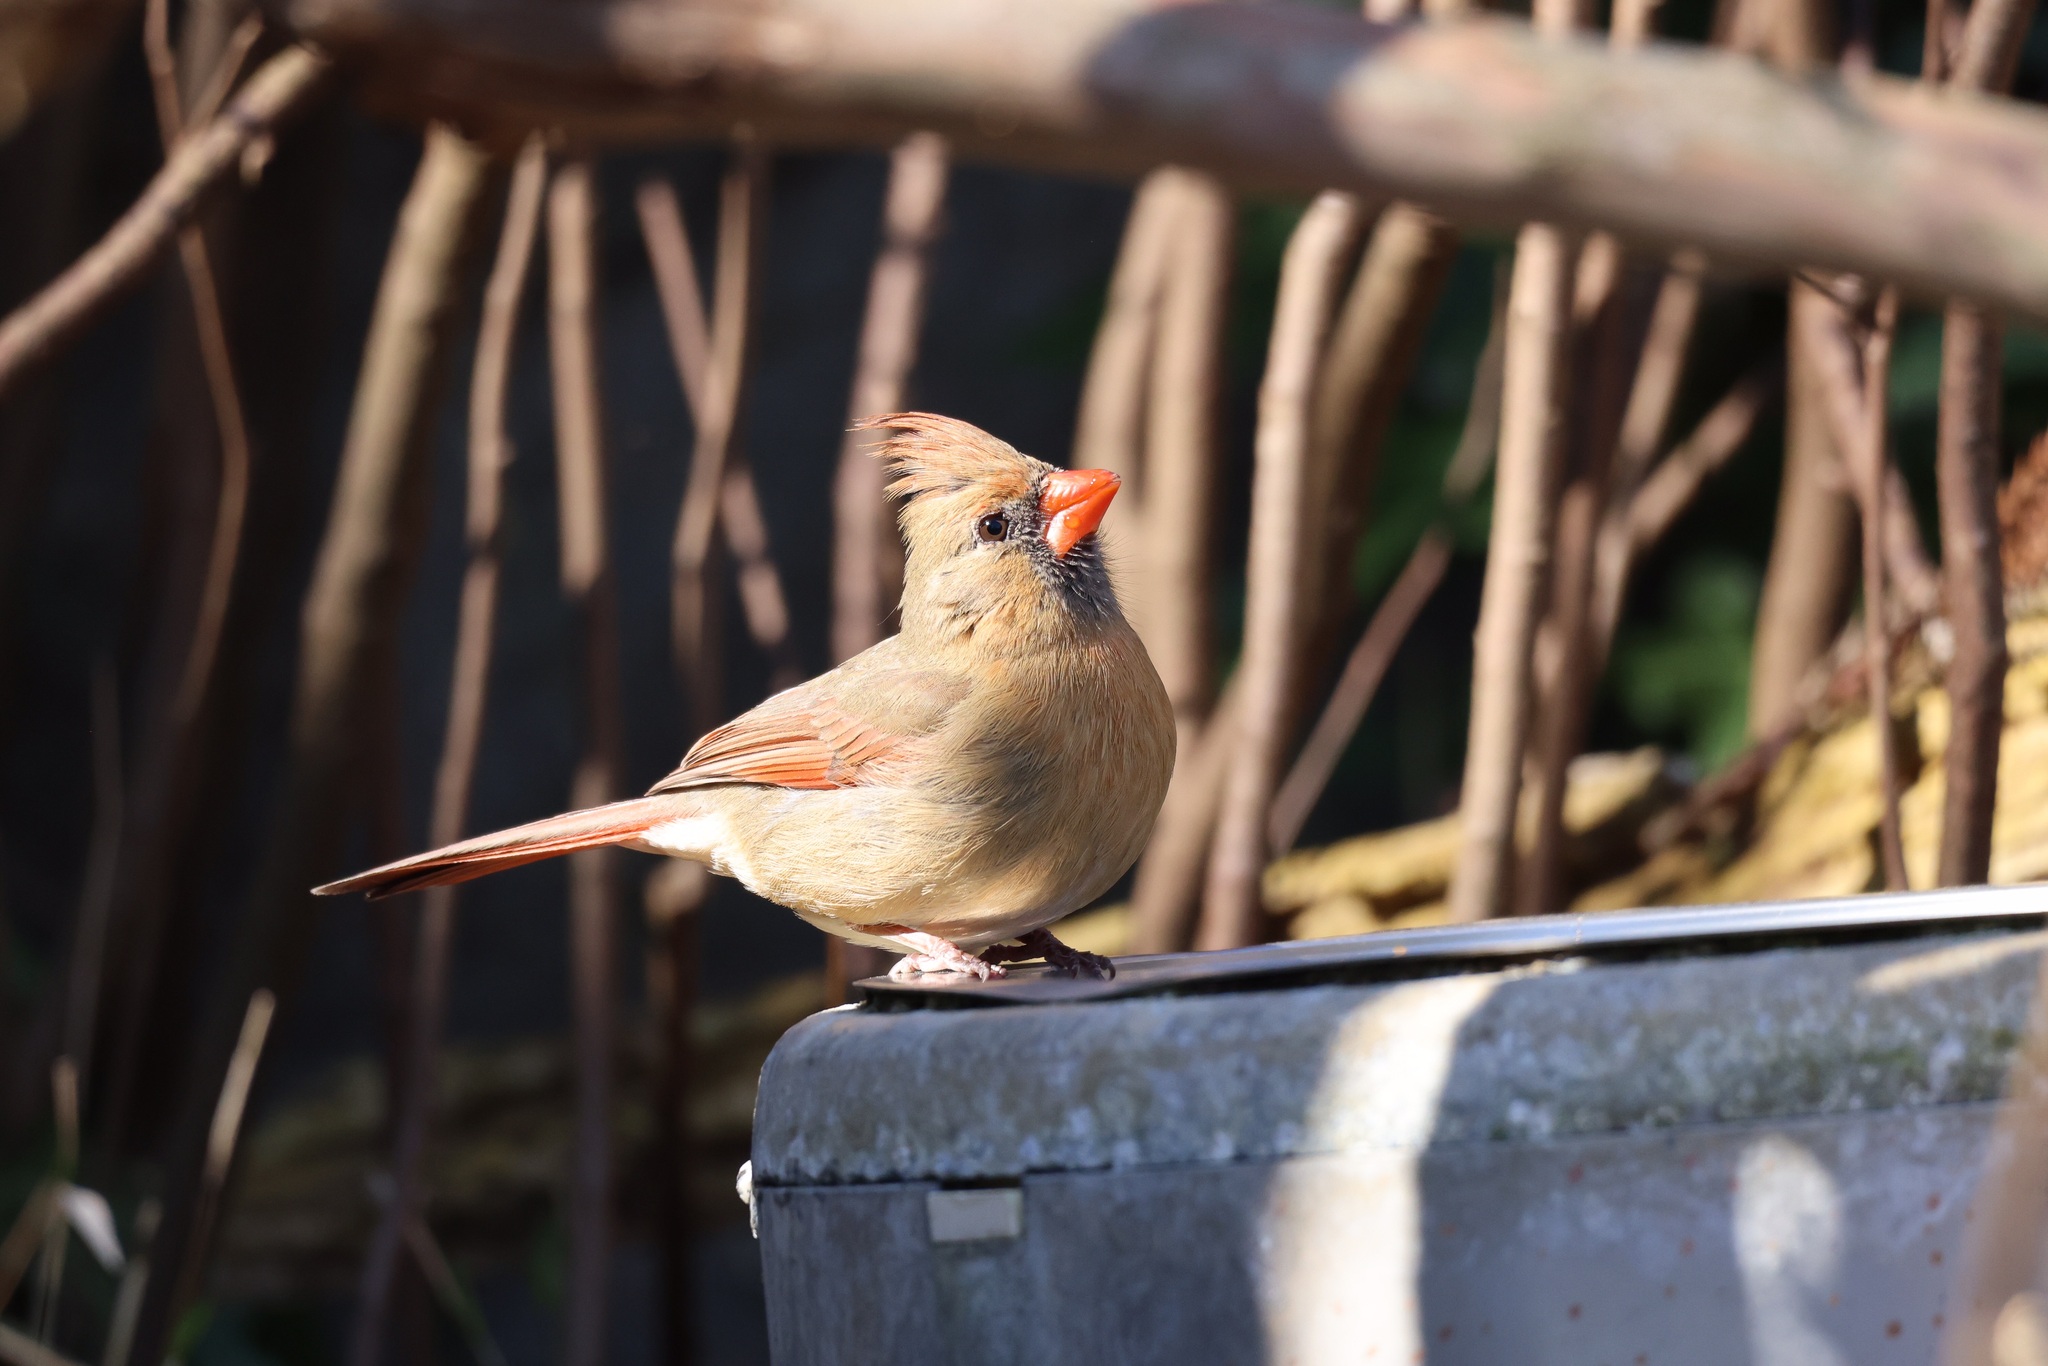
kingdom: Animalia
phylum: Chordata
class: Aves
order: Passeriformes
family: Cardinalidae
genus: Cardinalis
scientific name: Cardinalis cardinalis
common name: Northern cardinal
